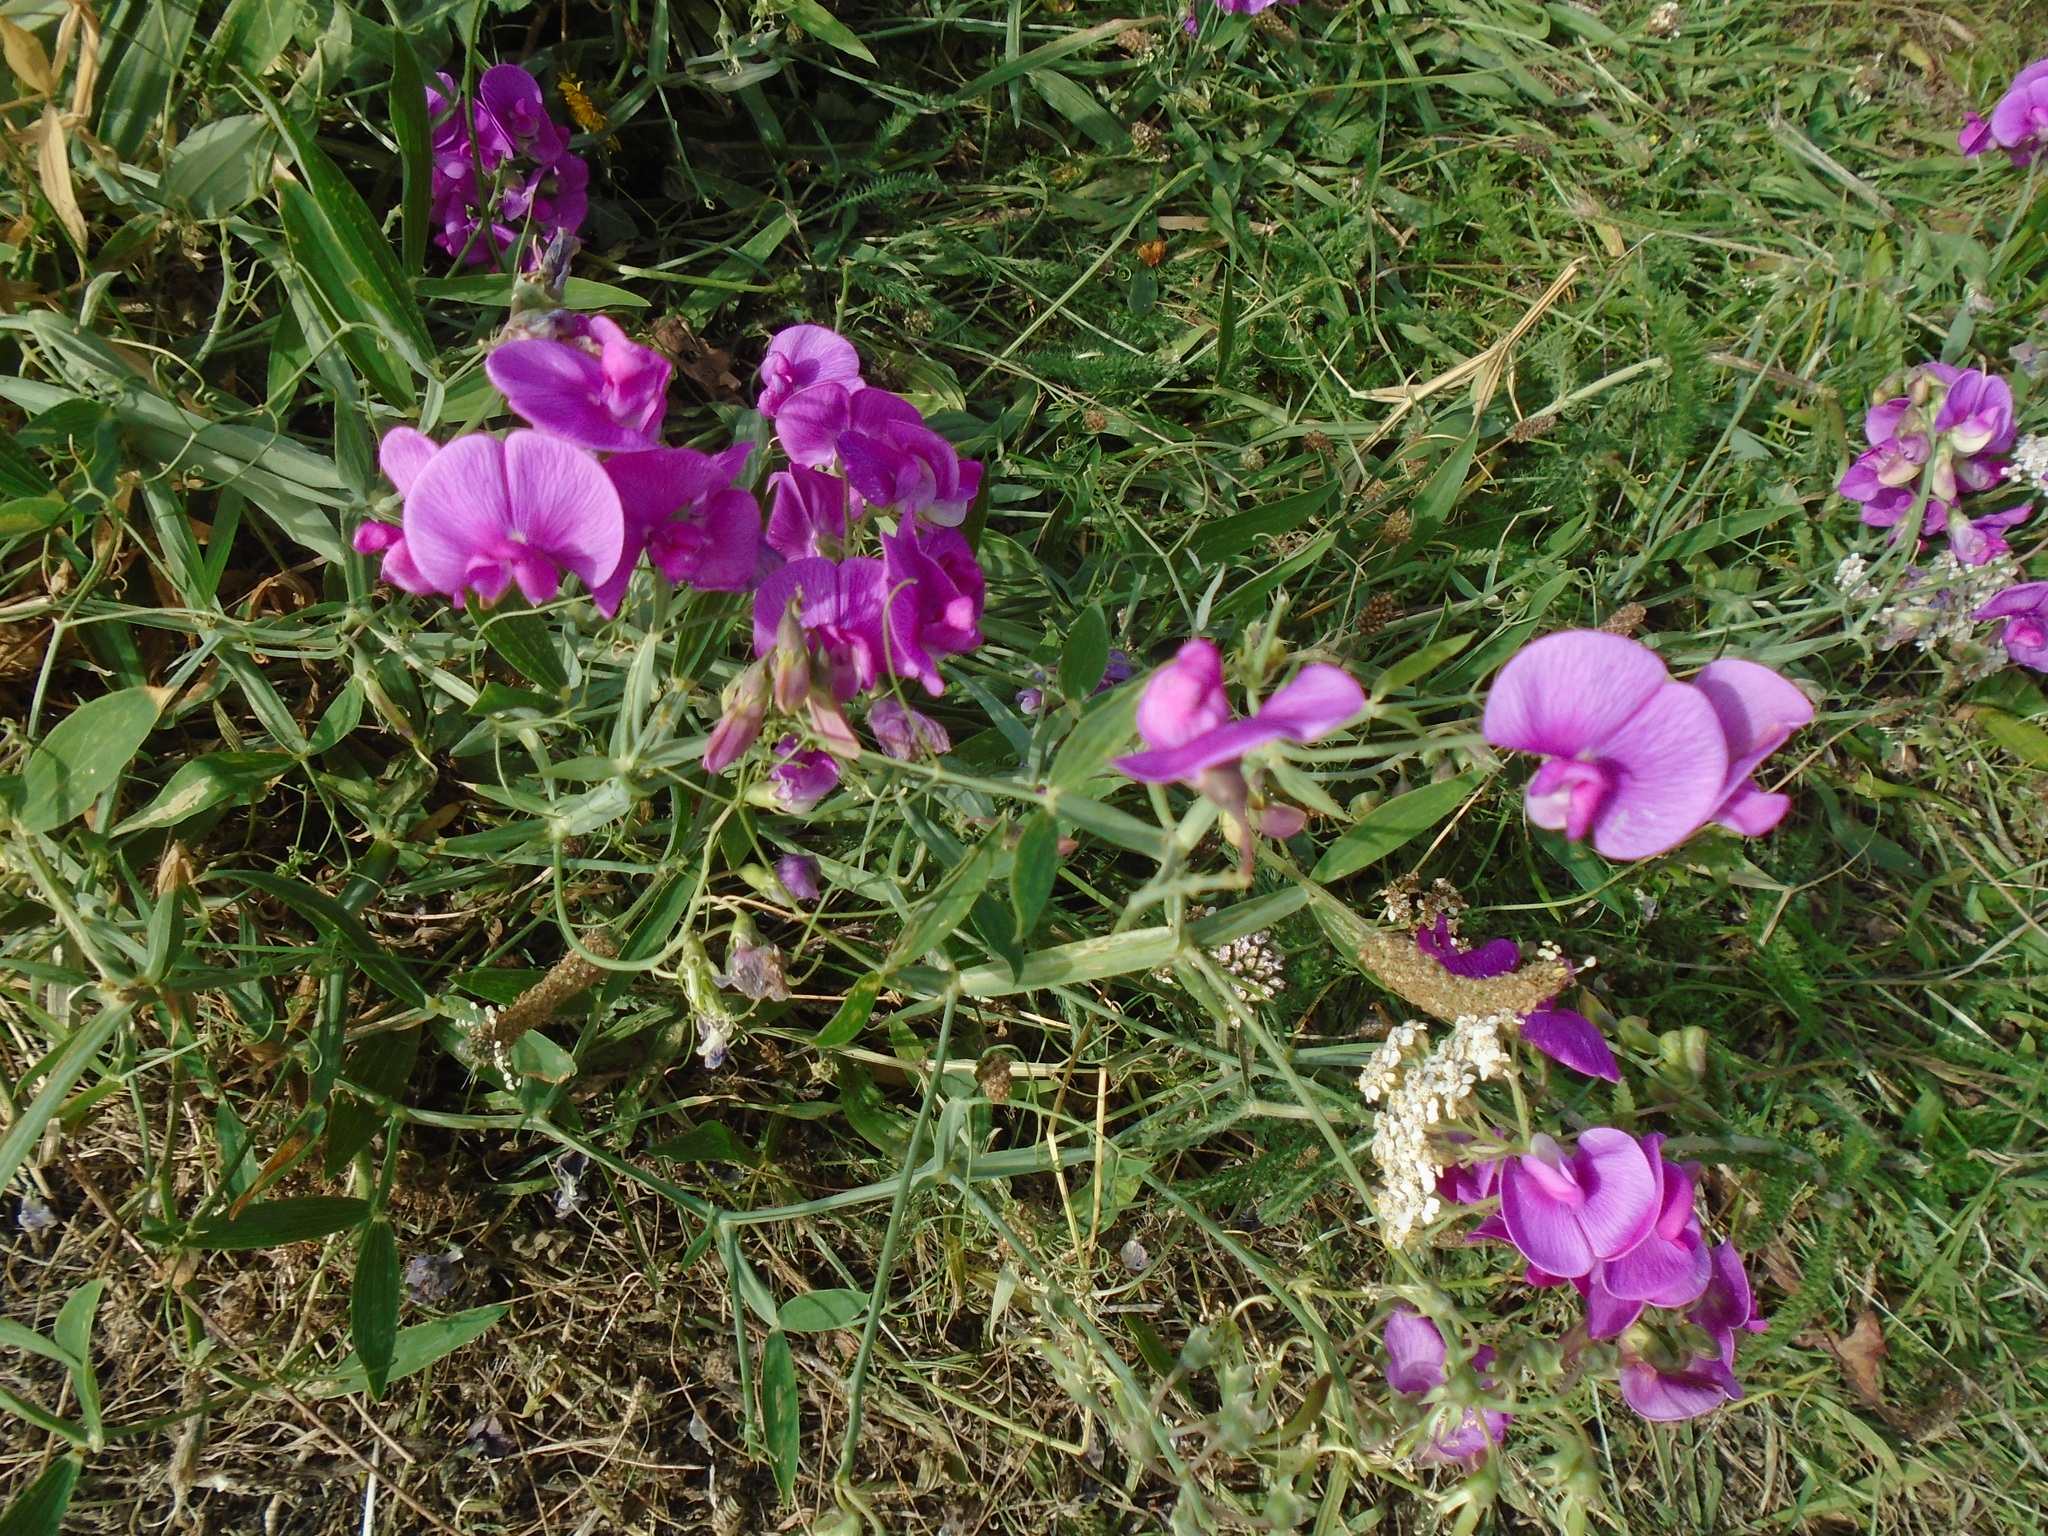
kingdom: Plantae
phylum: Tracheophyta
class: Magnoliopsida
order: Fabales
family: Fabaceae
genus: Lathyrus
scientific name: Lathyrus latifolius
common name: Perennial pea
